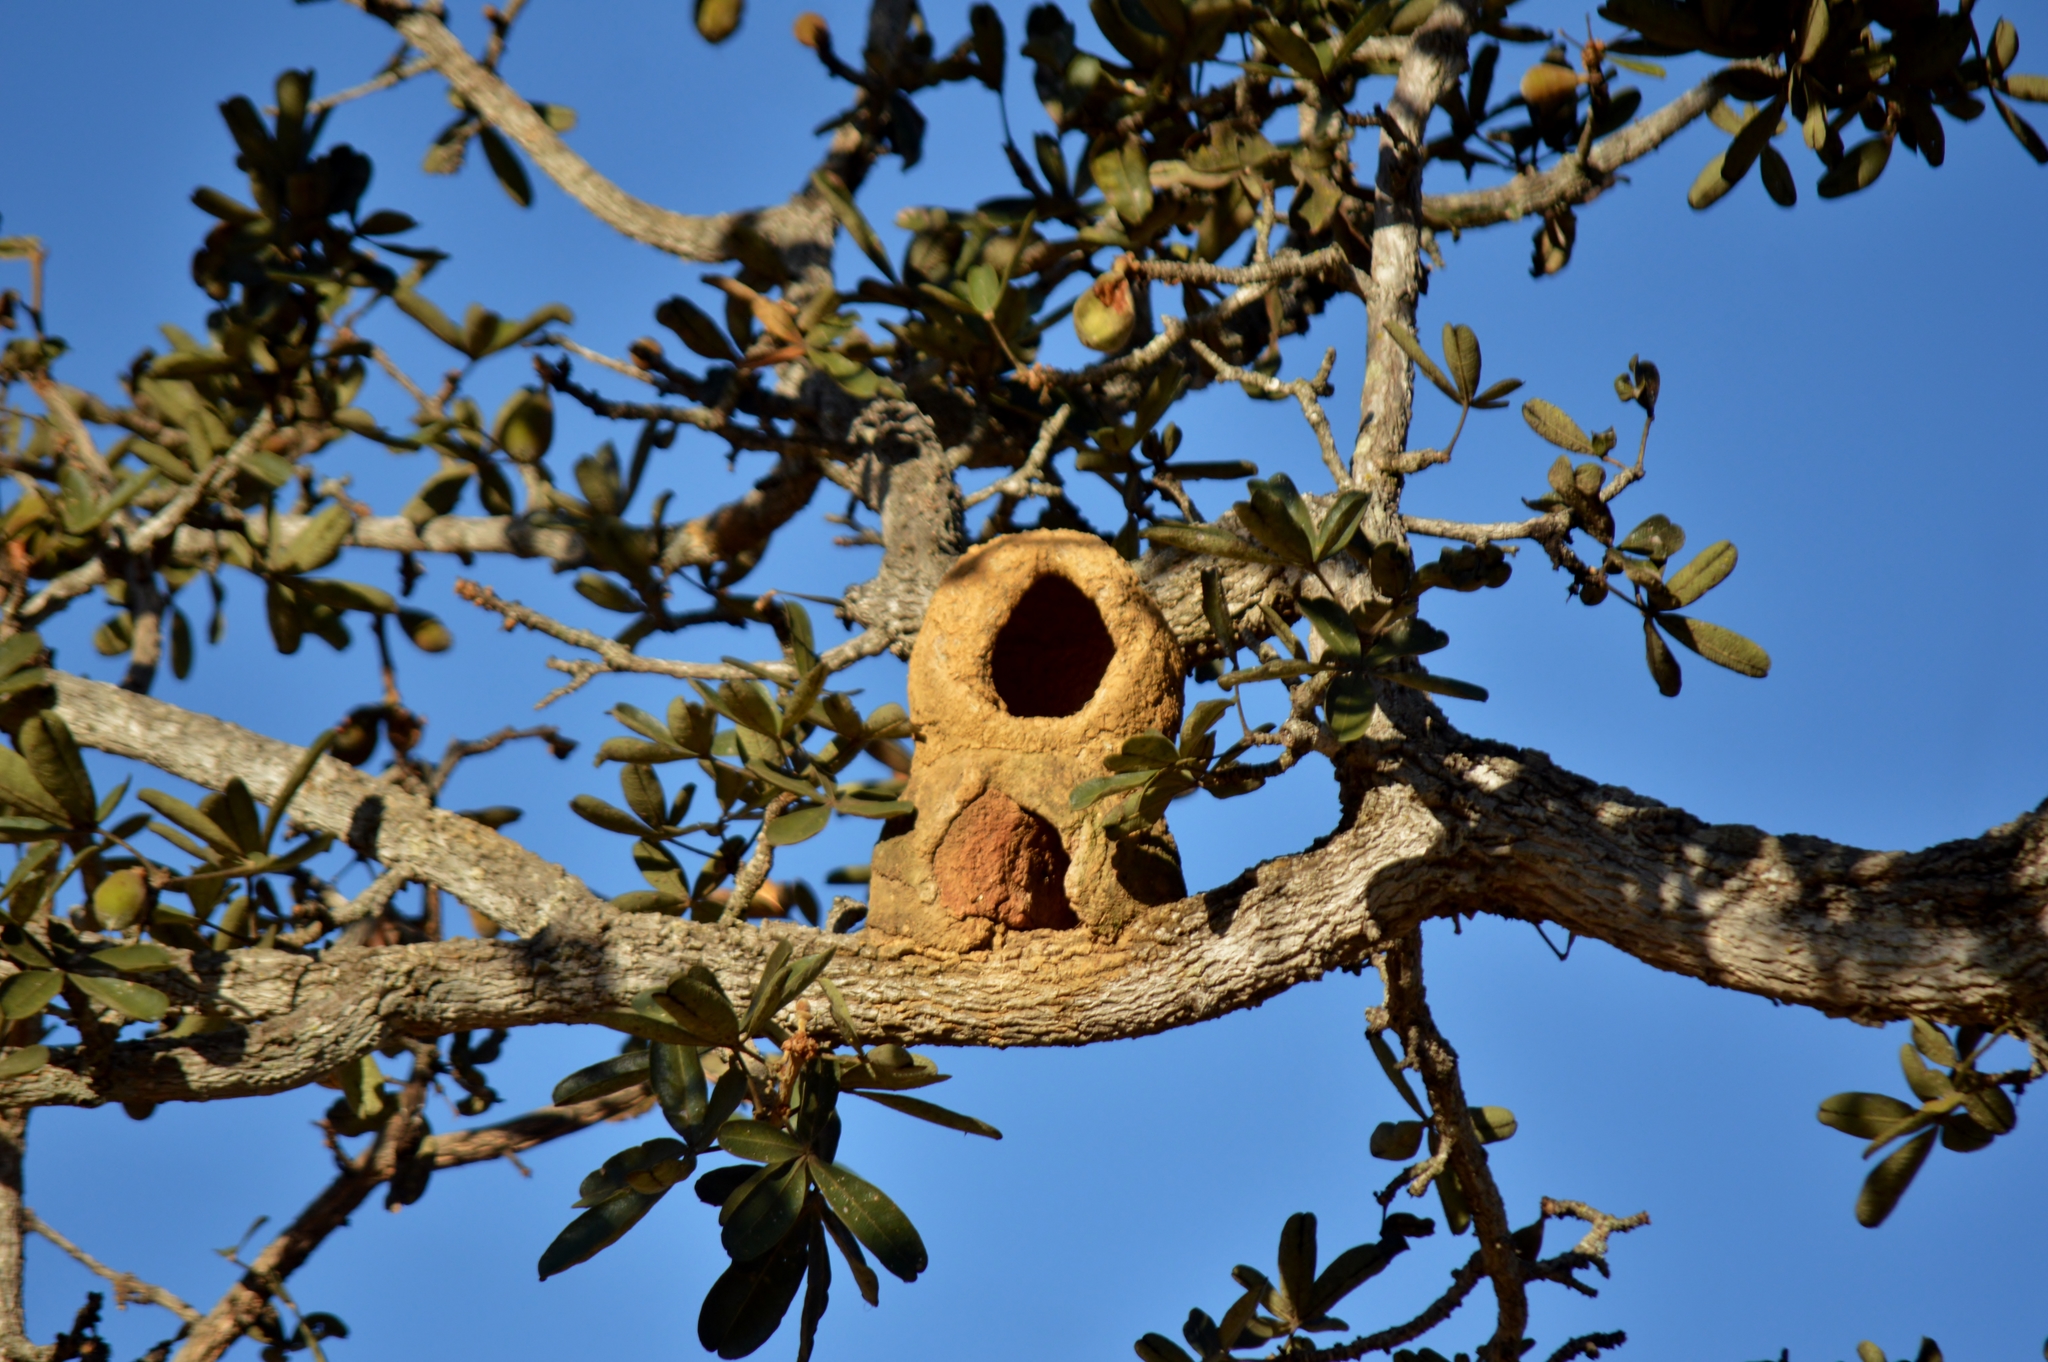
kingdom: Animalia
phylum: Chordata
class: Aves
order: Passeriformes
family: Furnariidae
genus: Furnarius
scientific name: Furnarius rufus
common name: Rufous hornero
